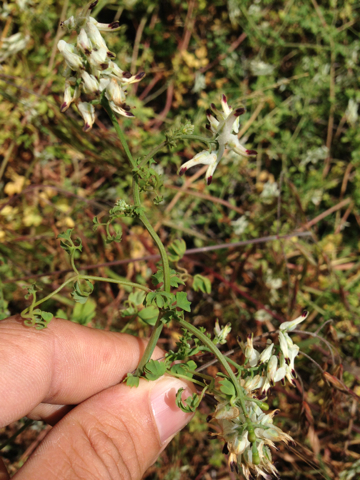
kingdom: Plantae
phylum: Tracheophyta
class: Magnoliopsida
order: Ranunculales
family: Papaveraceae
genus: Fumaria
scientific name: Fumaria capreolata
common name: White ramping-fumitory
